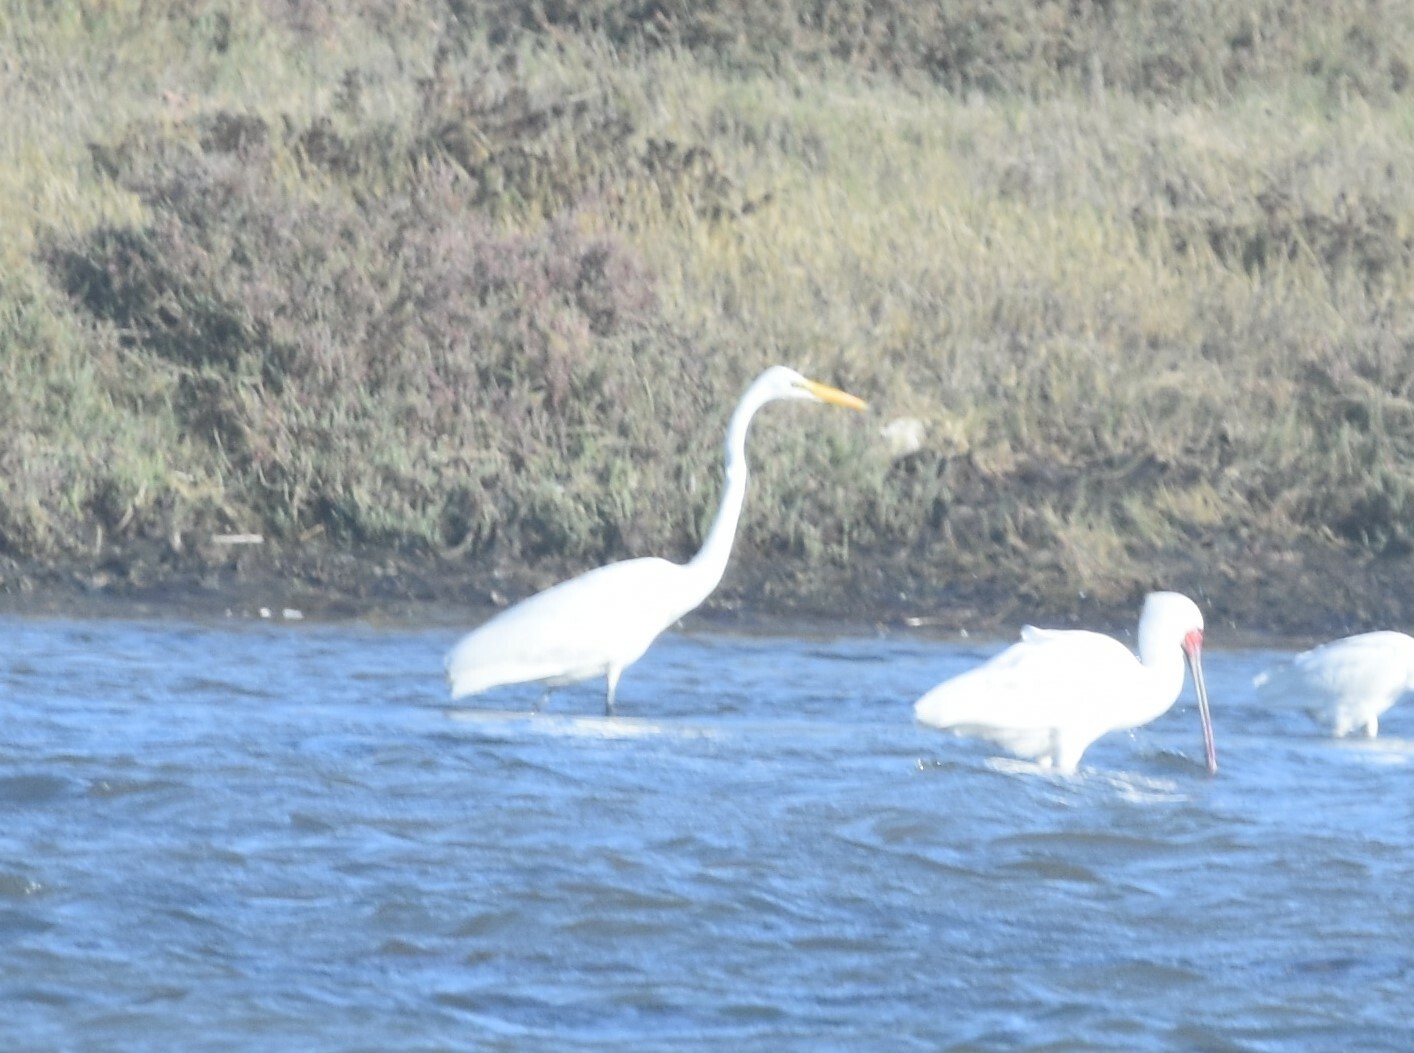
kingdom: Animalia
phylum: Chordata
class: Aves
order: Pelecaniformes
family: Ardeidae
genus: Ardea
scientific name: Ardea alba
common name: Great egret
